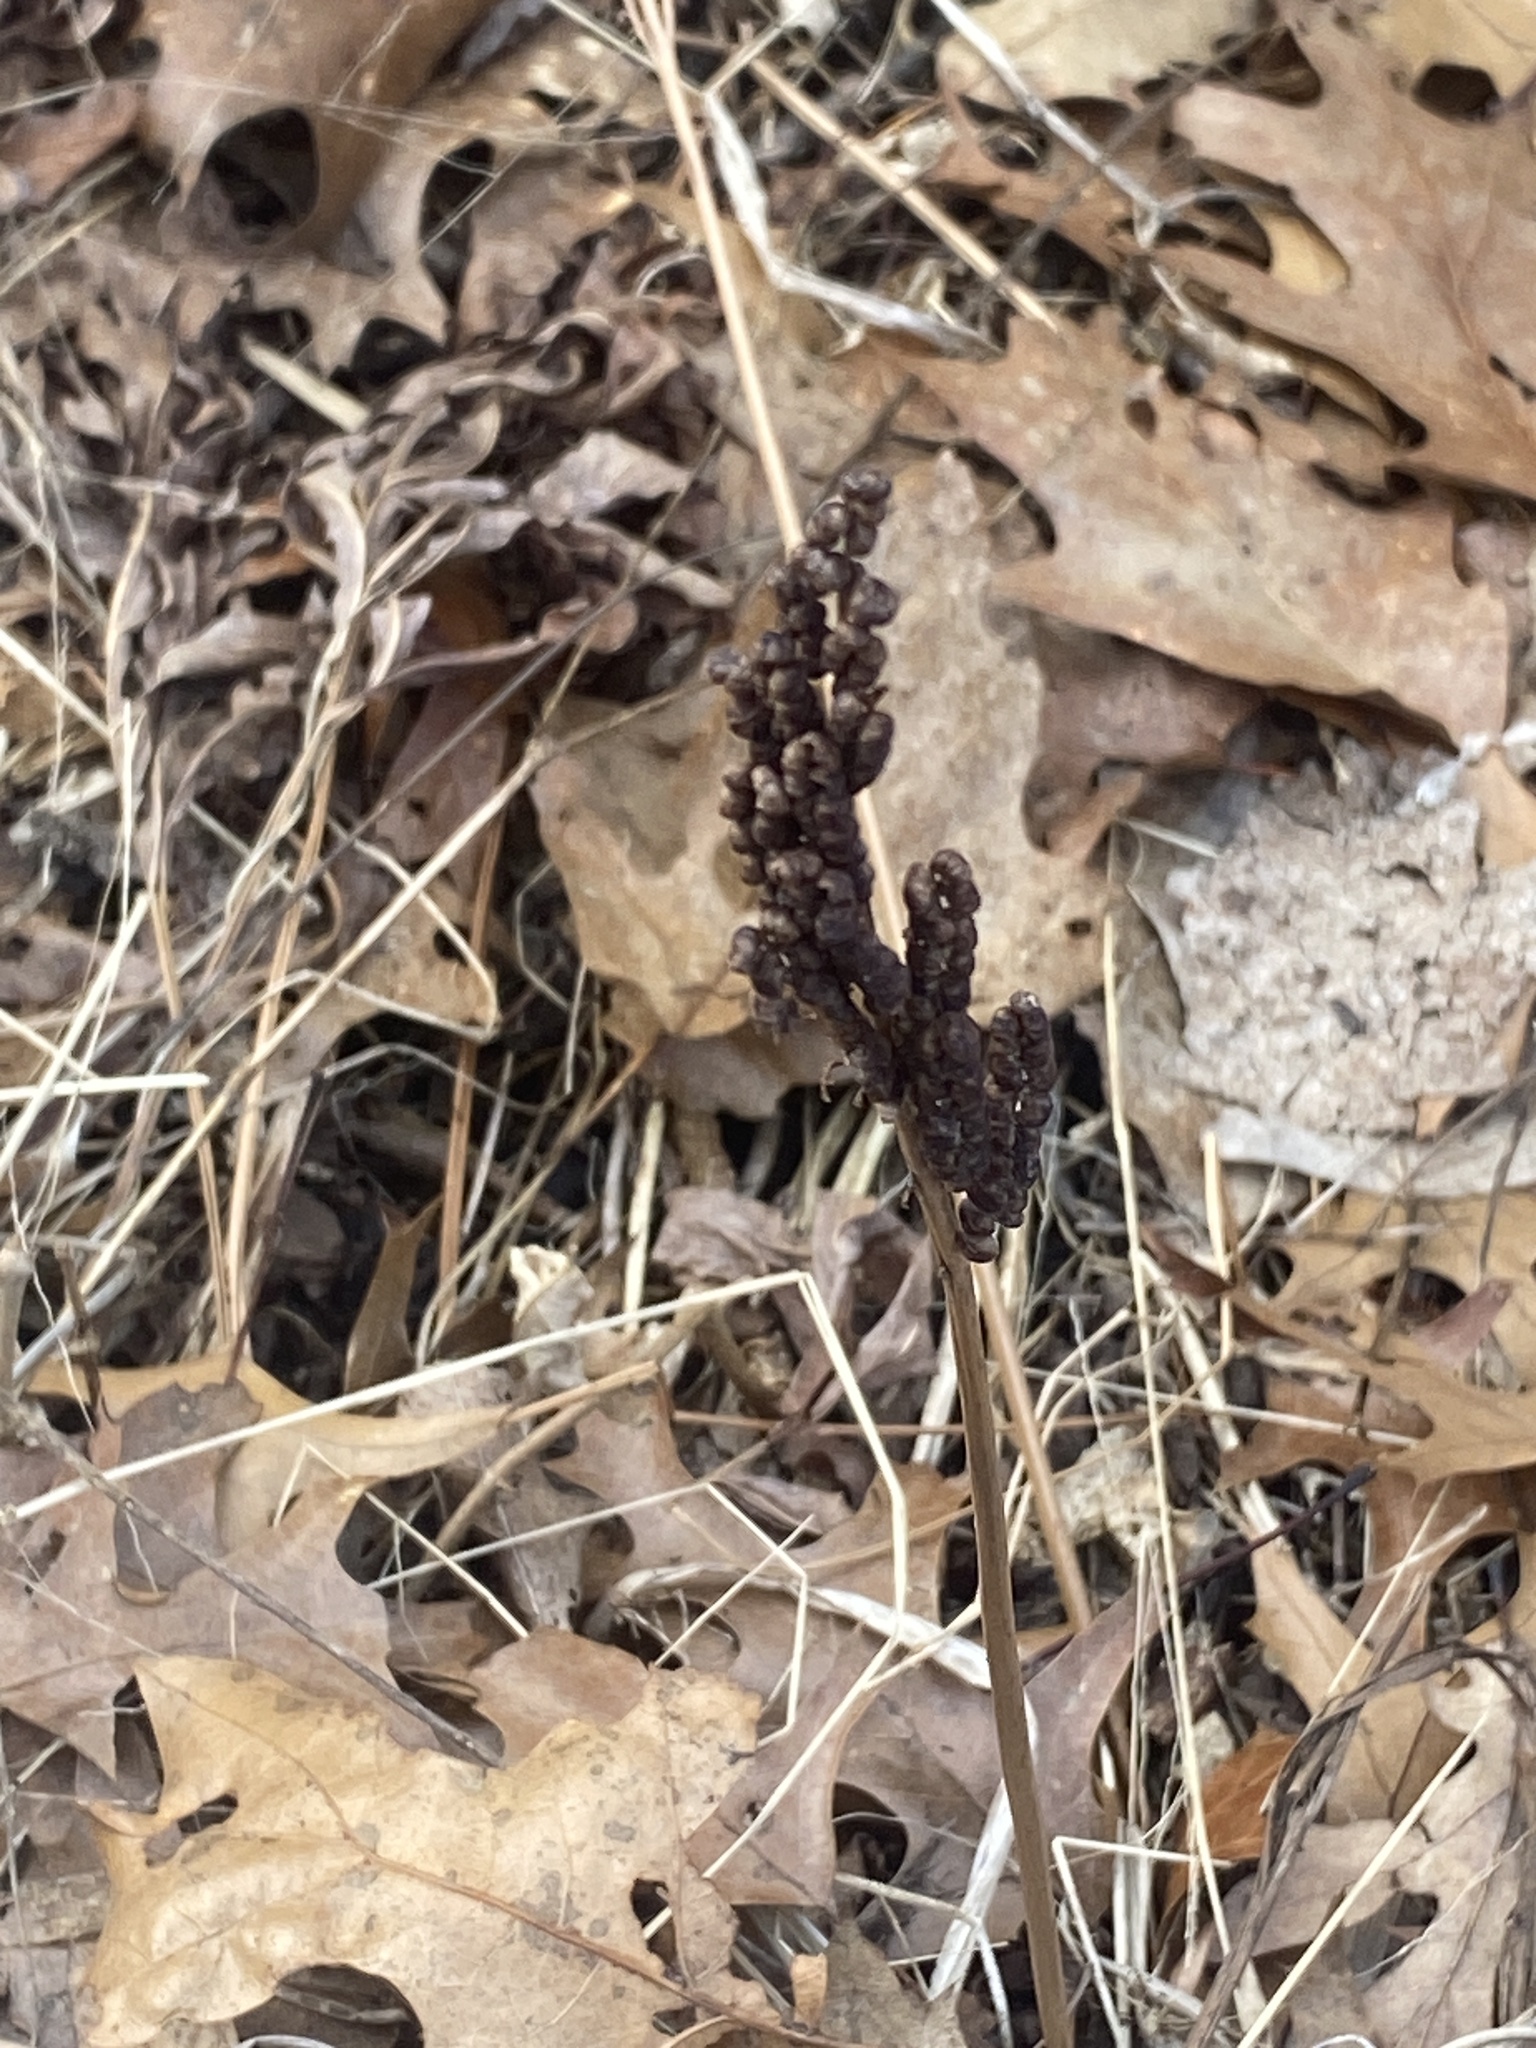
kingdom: Plantae
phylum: Tracheophyta
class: Polypodiopsida
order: Polypodiales
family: Onocleaceae
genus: Onoclea
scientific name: Onoclea sensibilis
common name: Sensitive fern
